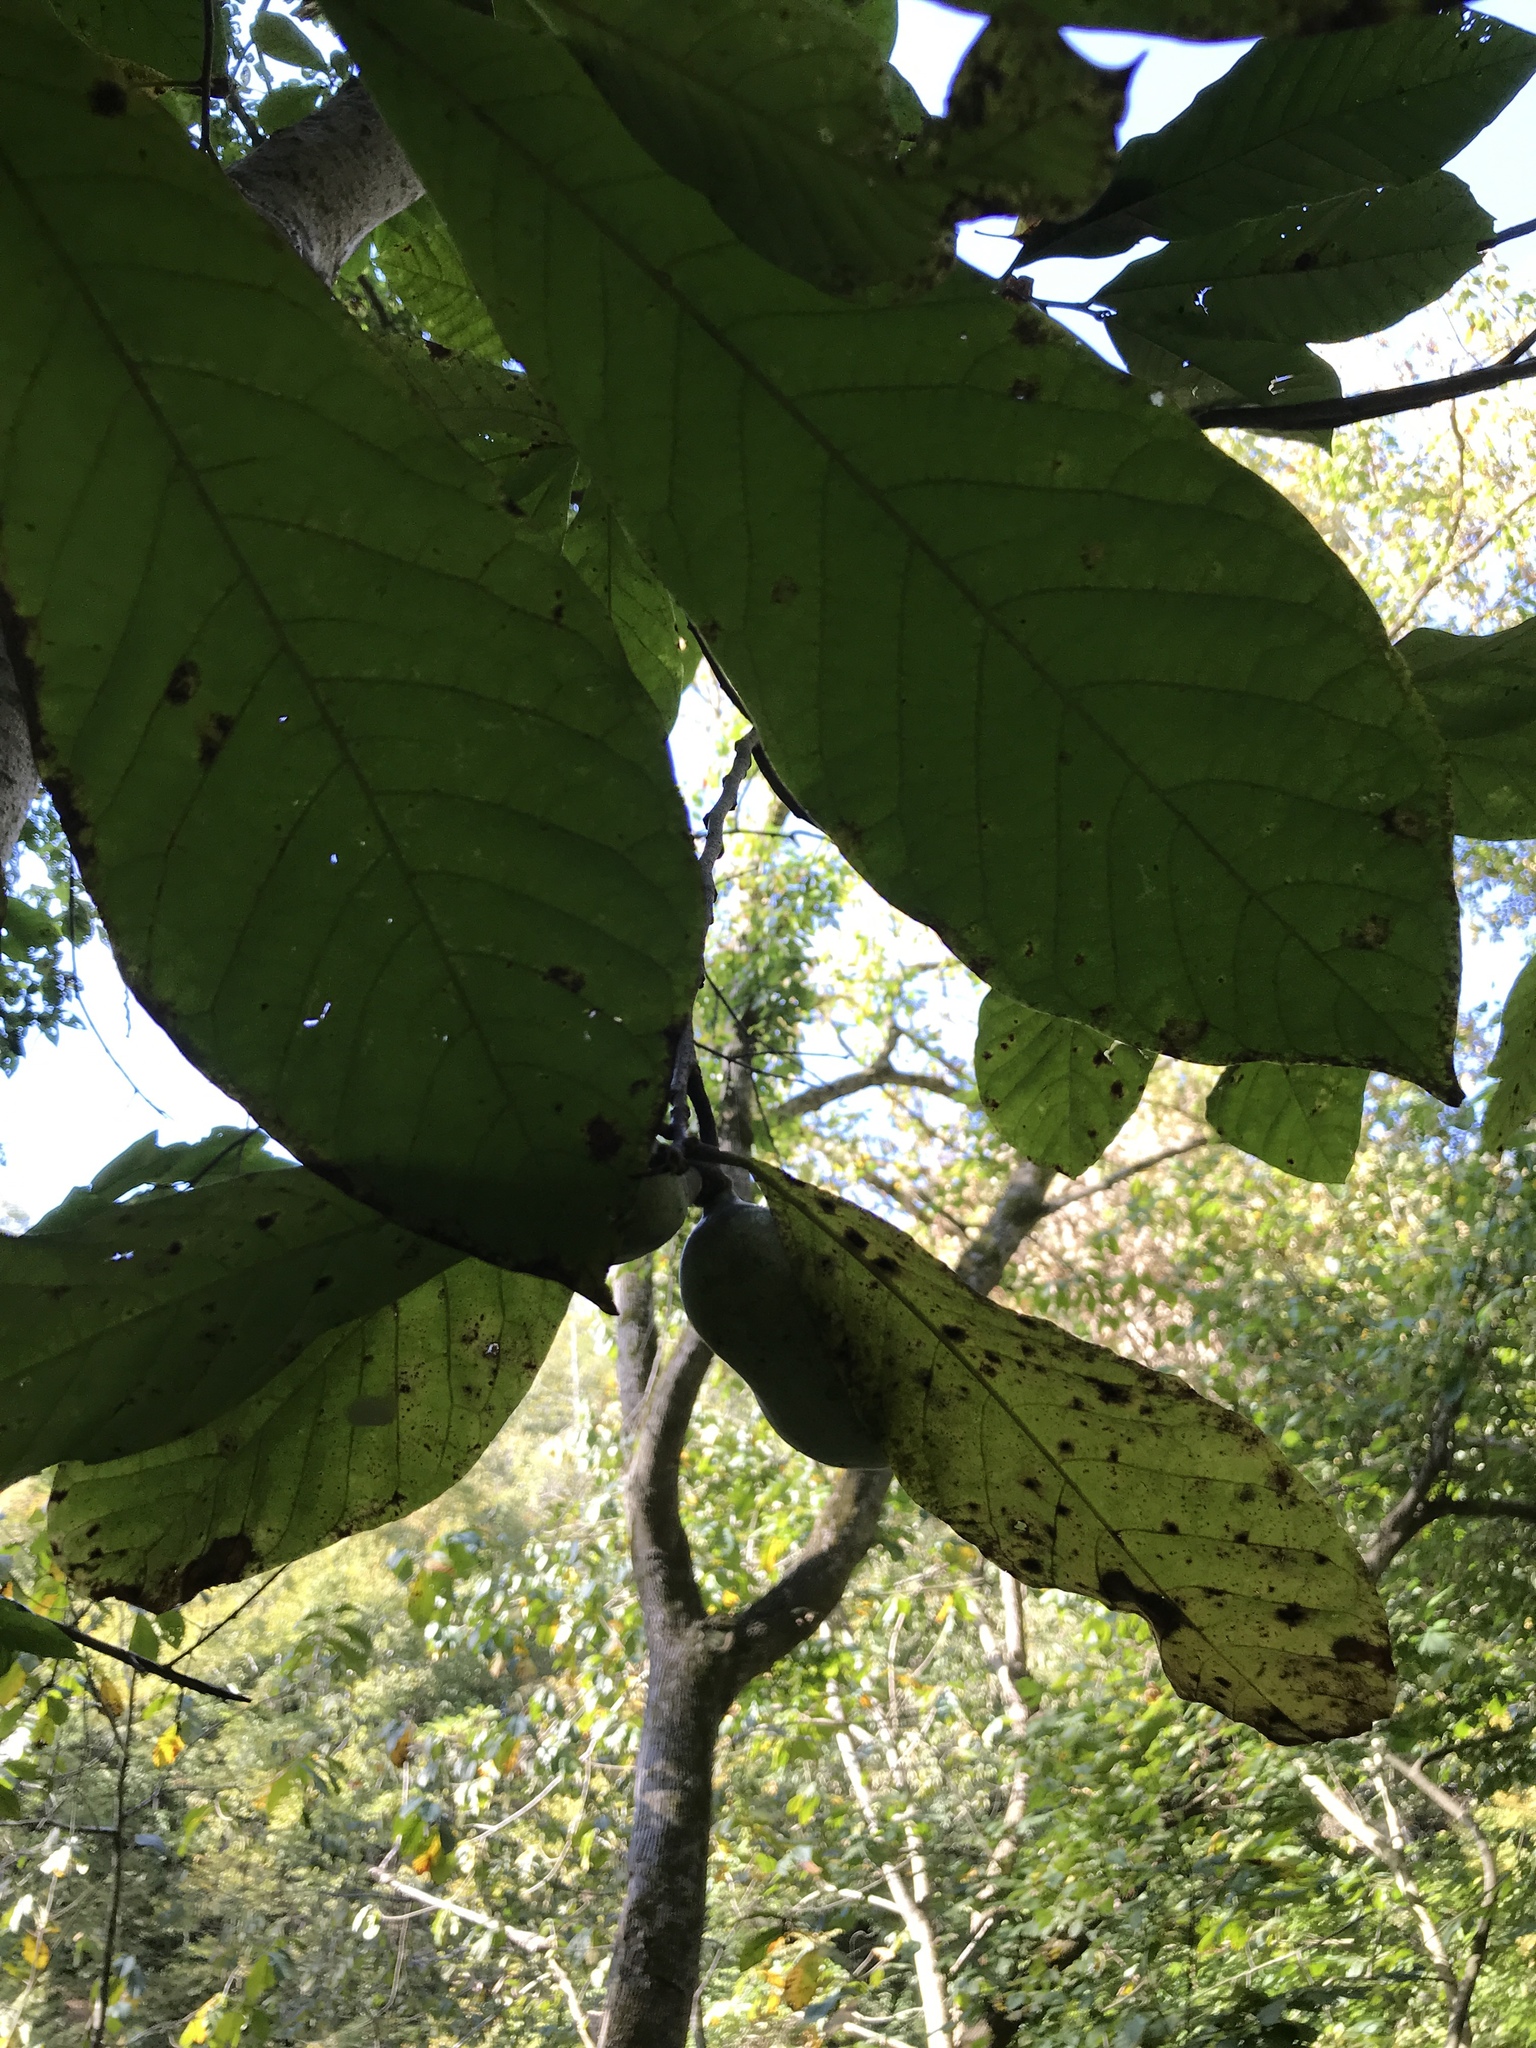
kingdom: Plantae
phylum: Tracheophyta
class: Magnoliopsida
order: Magnoliales
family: Annonaceae
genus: Asimina
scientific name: Asimina triloba
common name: Dog-banana
